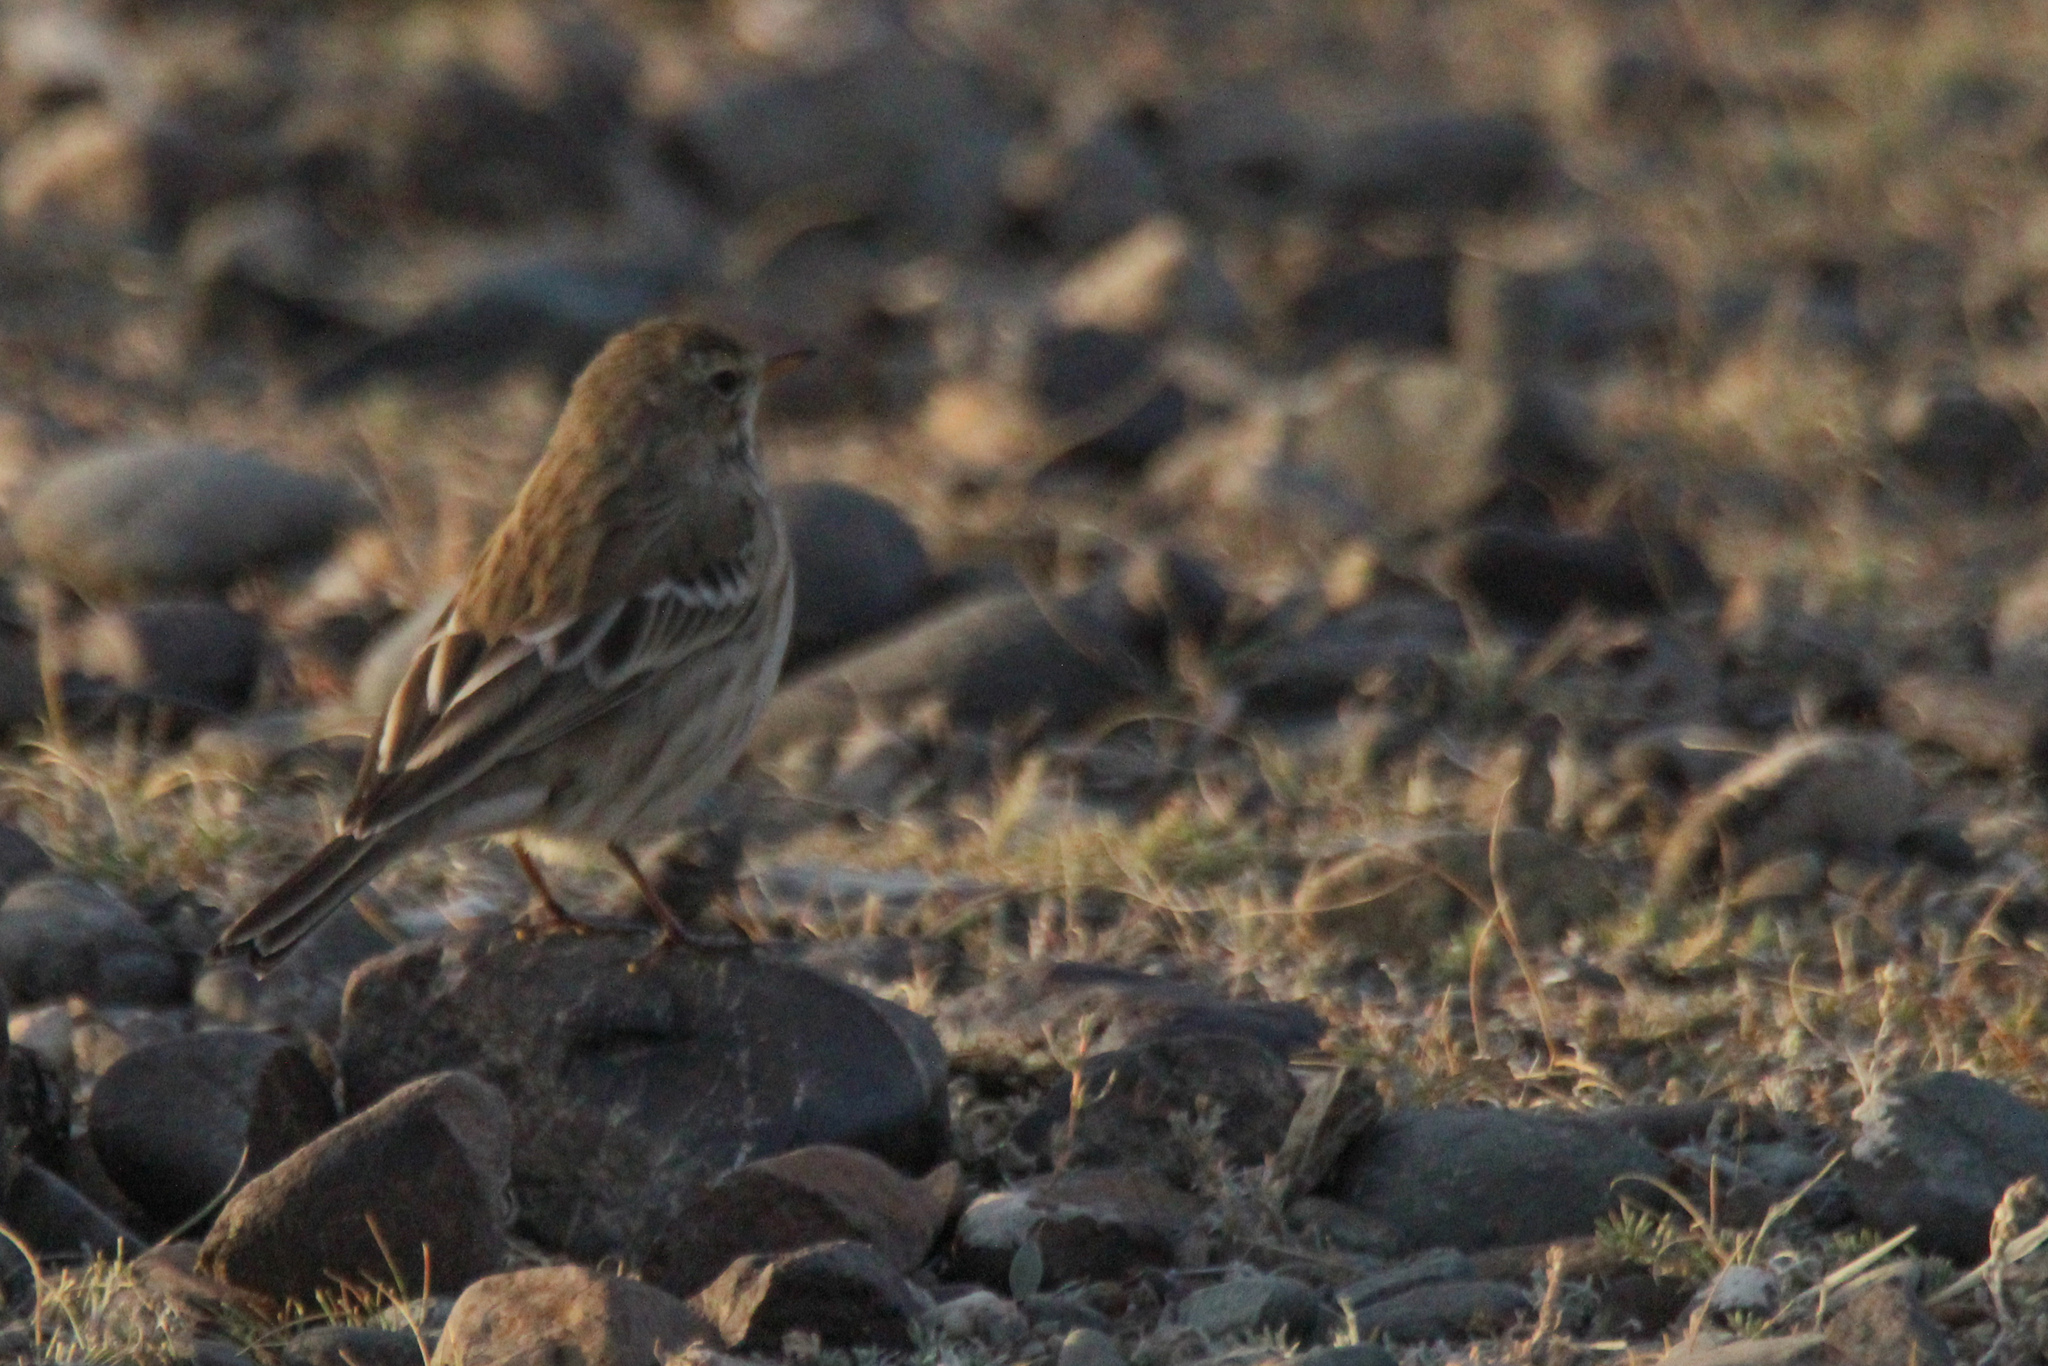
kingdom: Animalia
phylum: Chordata
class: Aves
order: Passeriformes
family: Motacillidae
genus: Anthus
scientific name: Anthus spinoletta
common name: Water pipit
